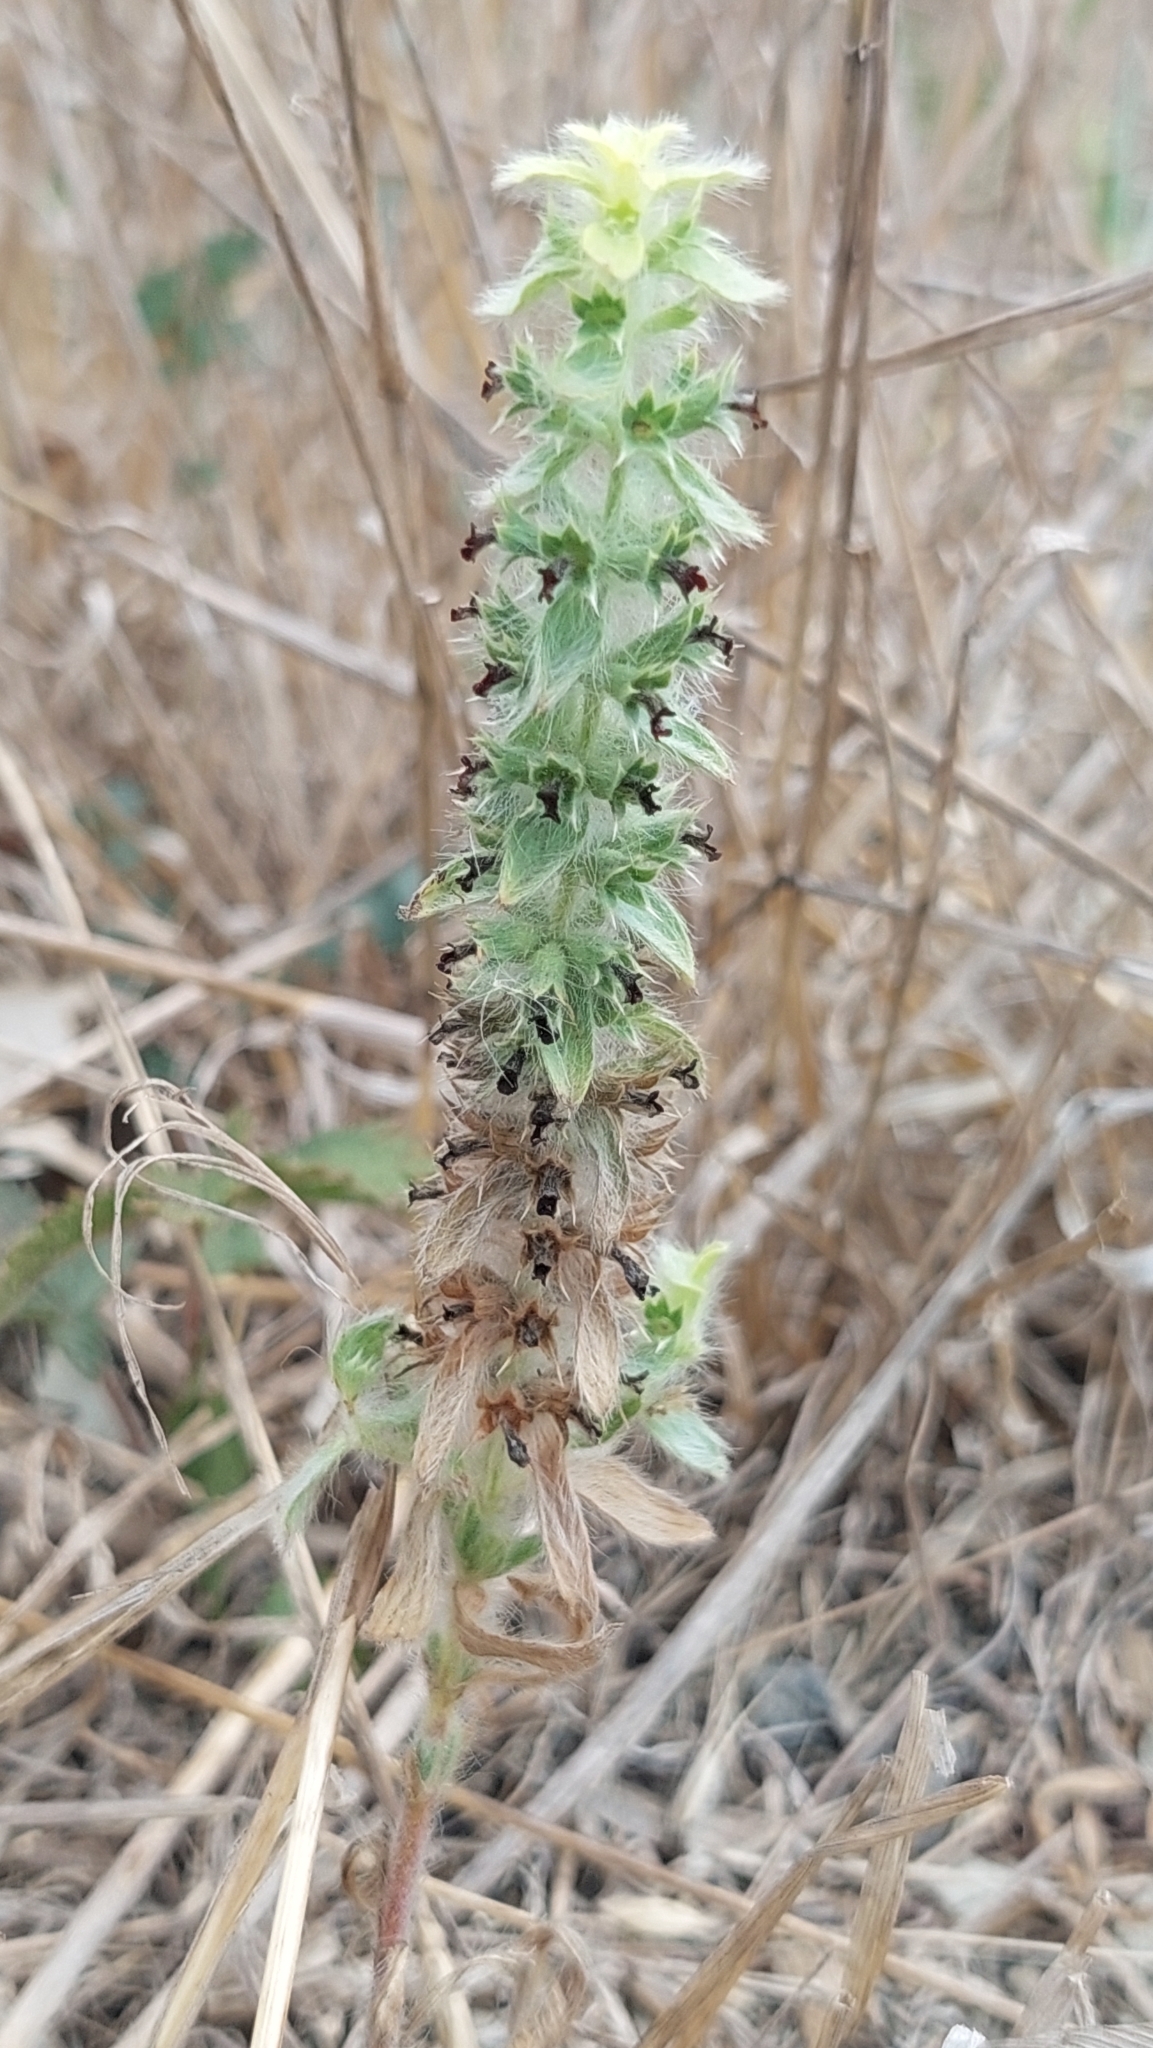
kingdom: Plantae
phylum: Tracheophyta
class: Magnoliopsida
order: Lamiales
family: Lamiaceae
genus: Sideritis
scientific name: Sideritis montana
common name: Mountain ironwort
